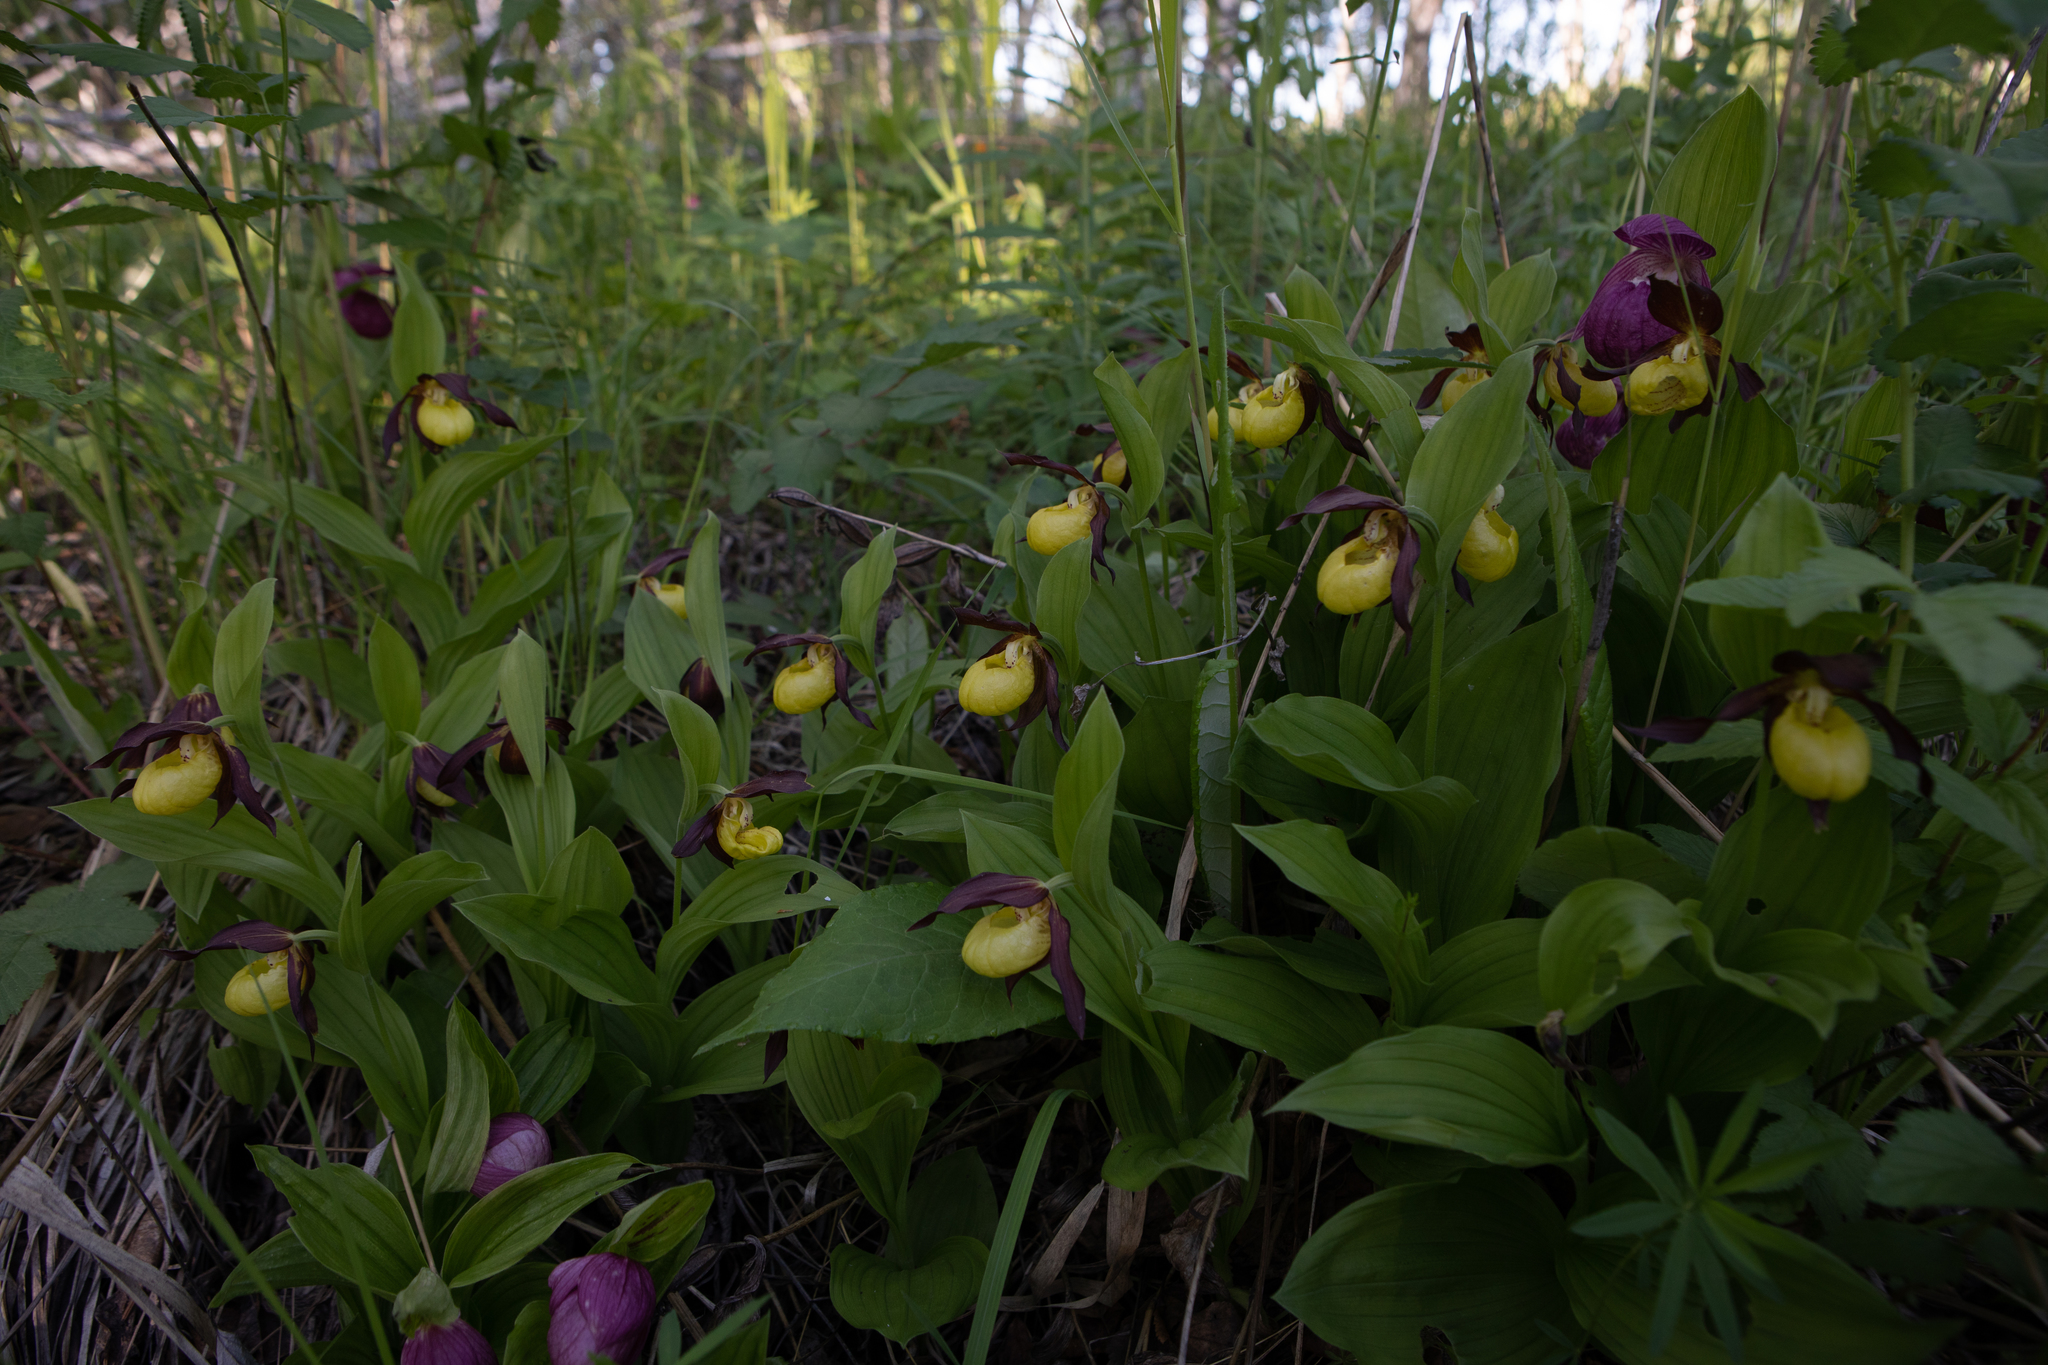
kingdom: Plantae
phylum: Tracheophyta
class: Liliopsida
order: Asparagales
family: Orchidaceae
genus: Cypripedium
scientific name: Cypripedium calceolus
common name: Lady's-slipper
